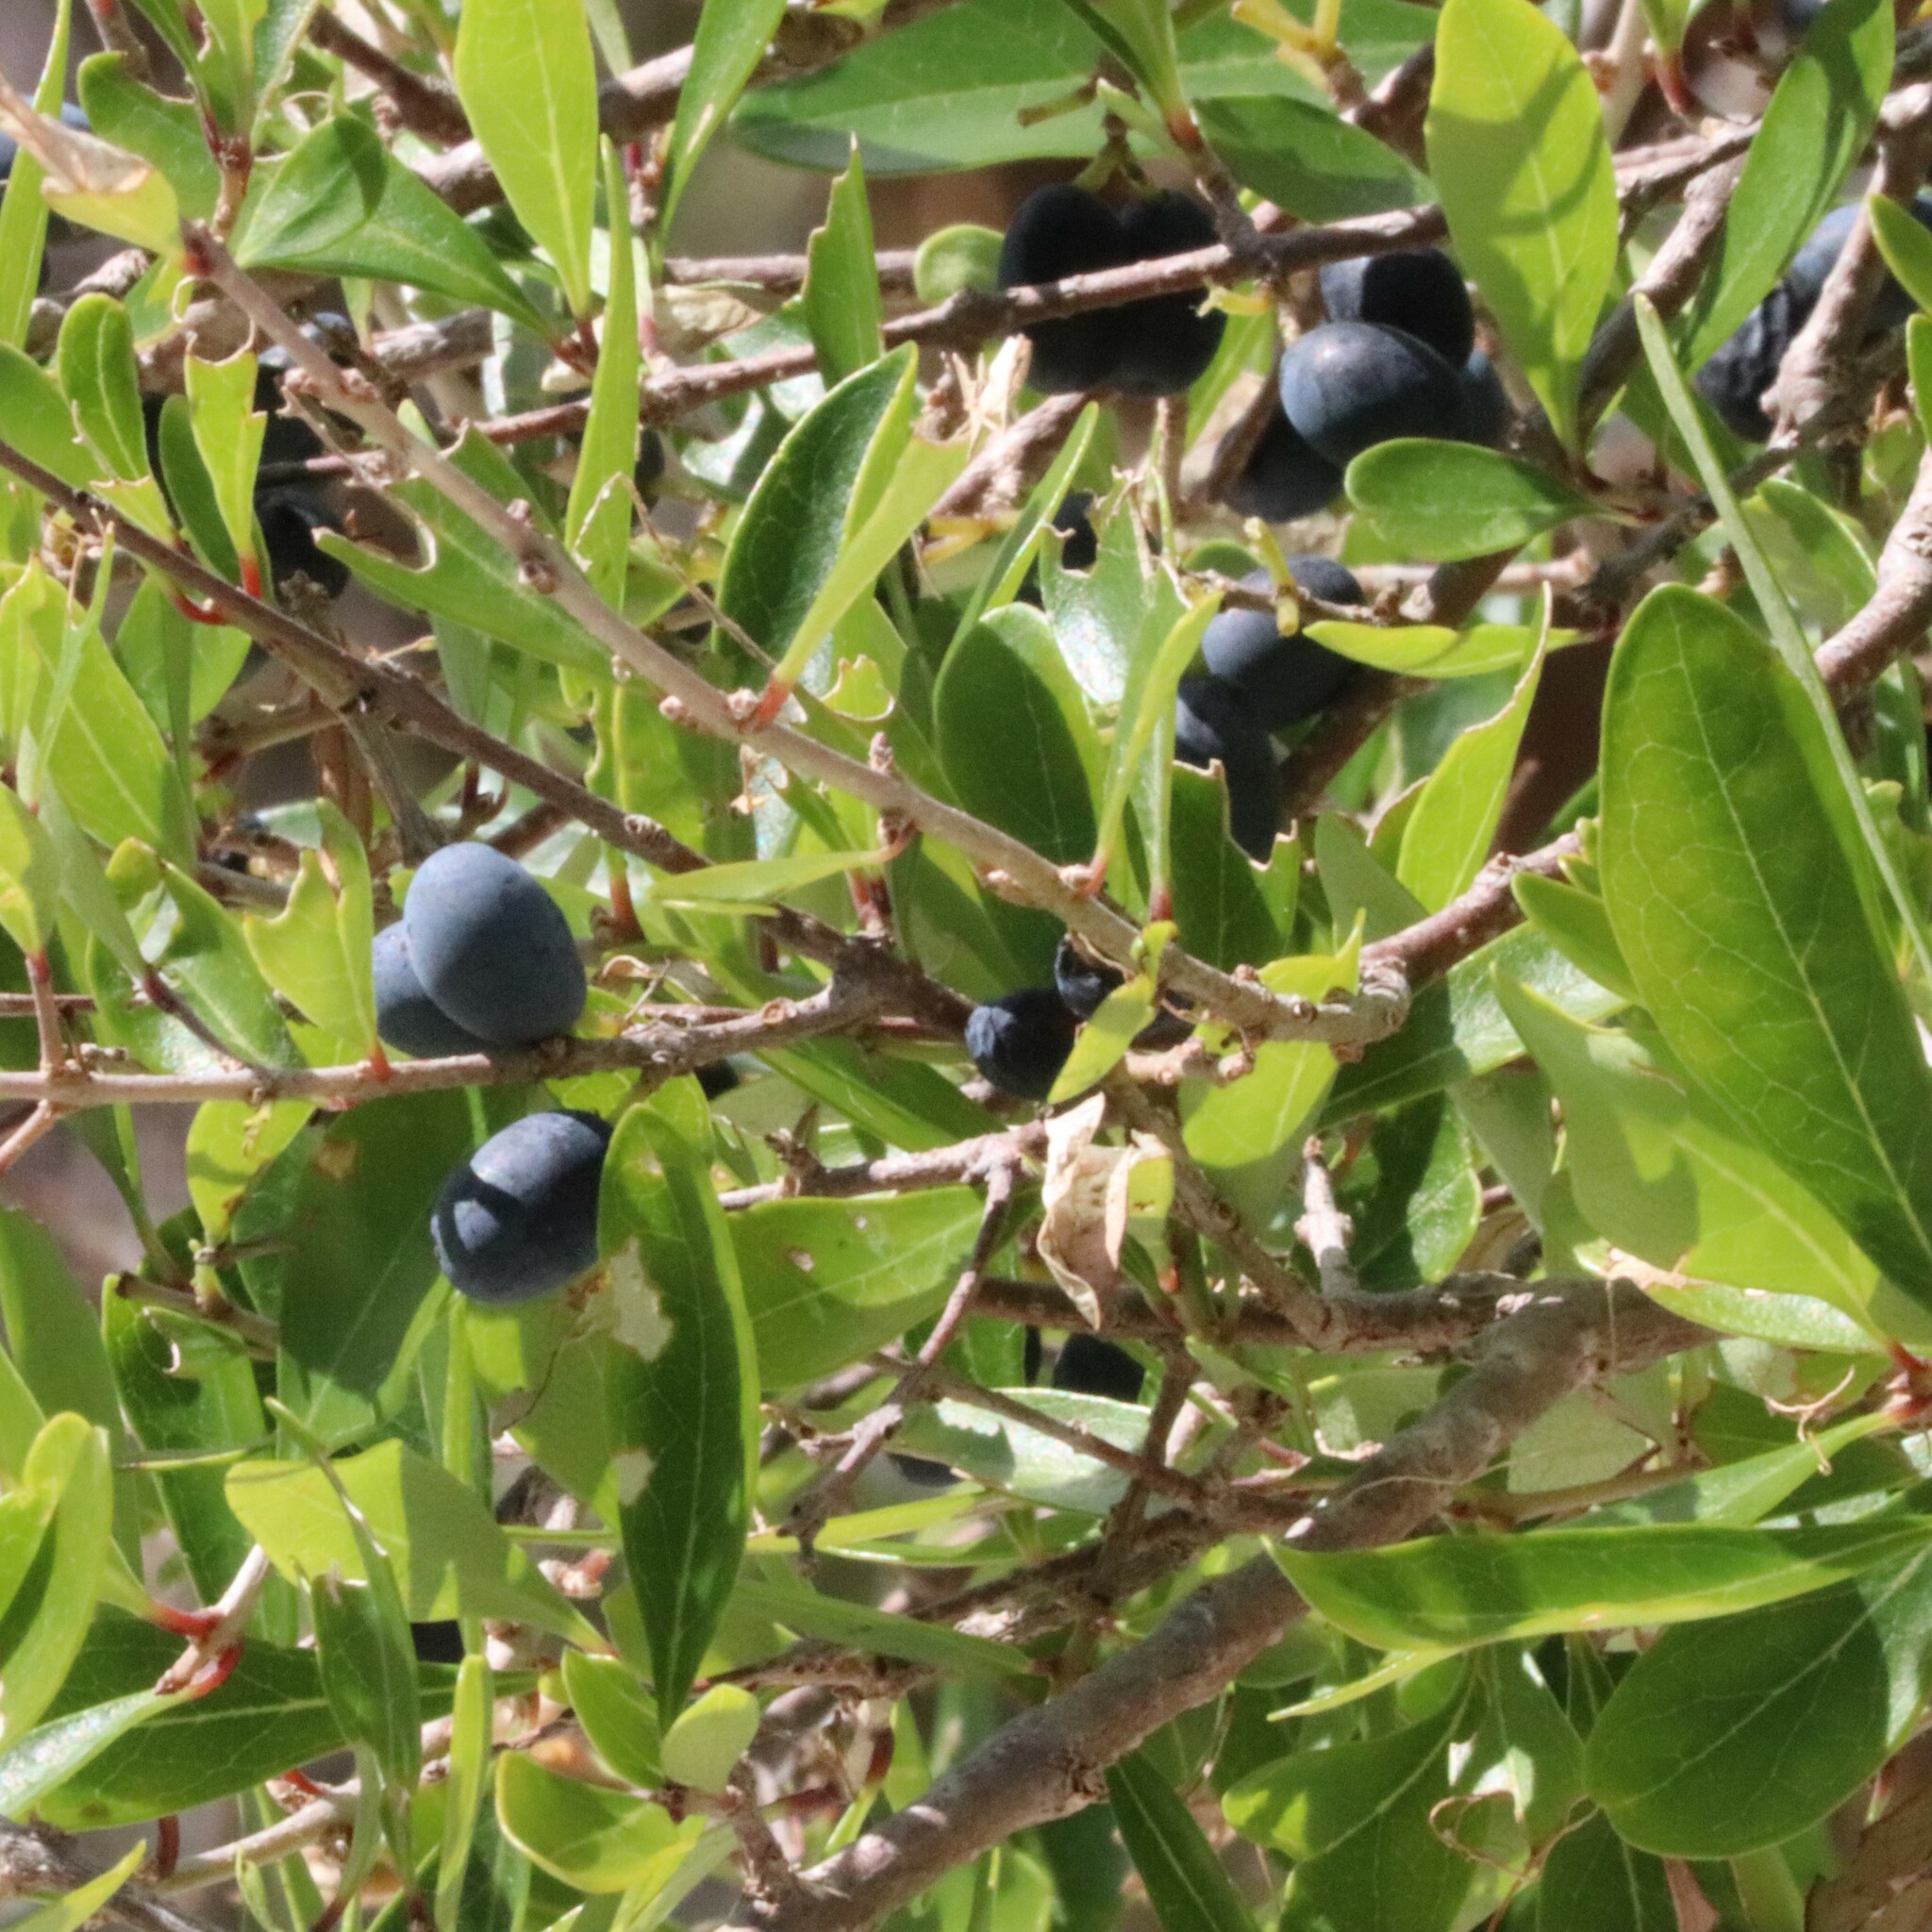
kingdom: Plantae
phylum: Tracheophyta
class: Magnoliopsida
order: Lamiales
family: Oleaceae
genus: Forestiera
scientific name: Forestiera segregata
